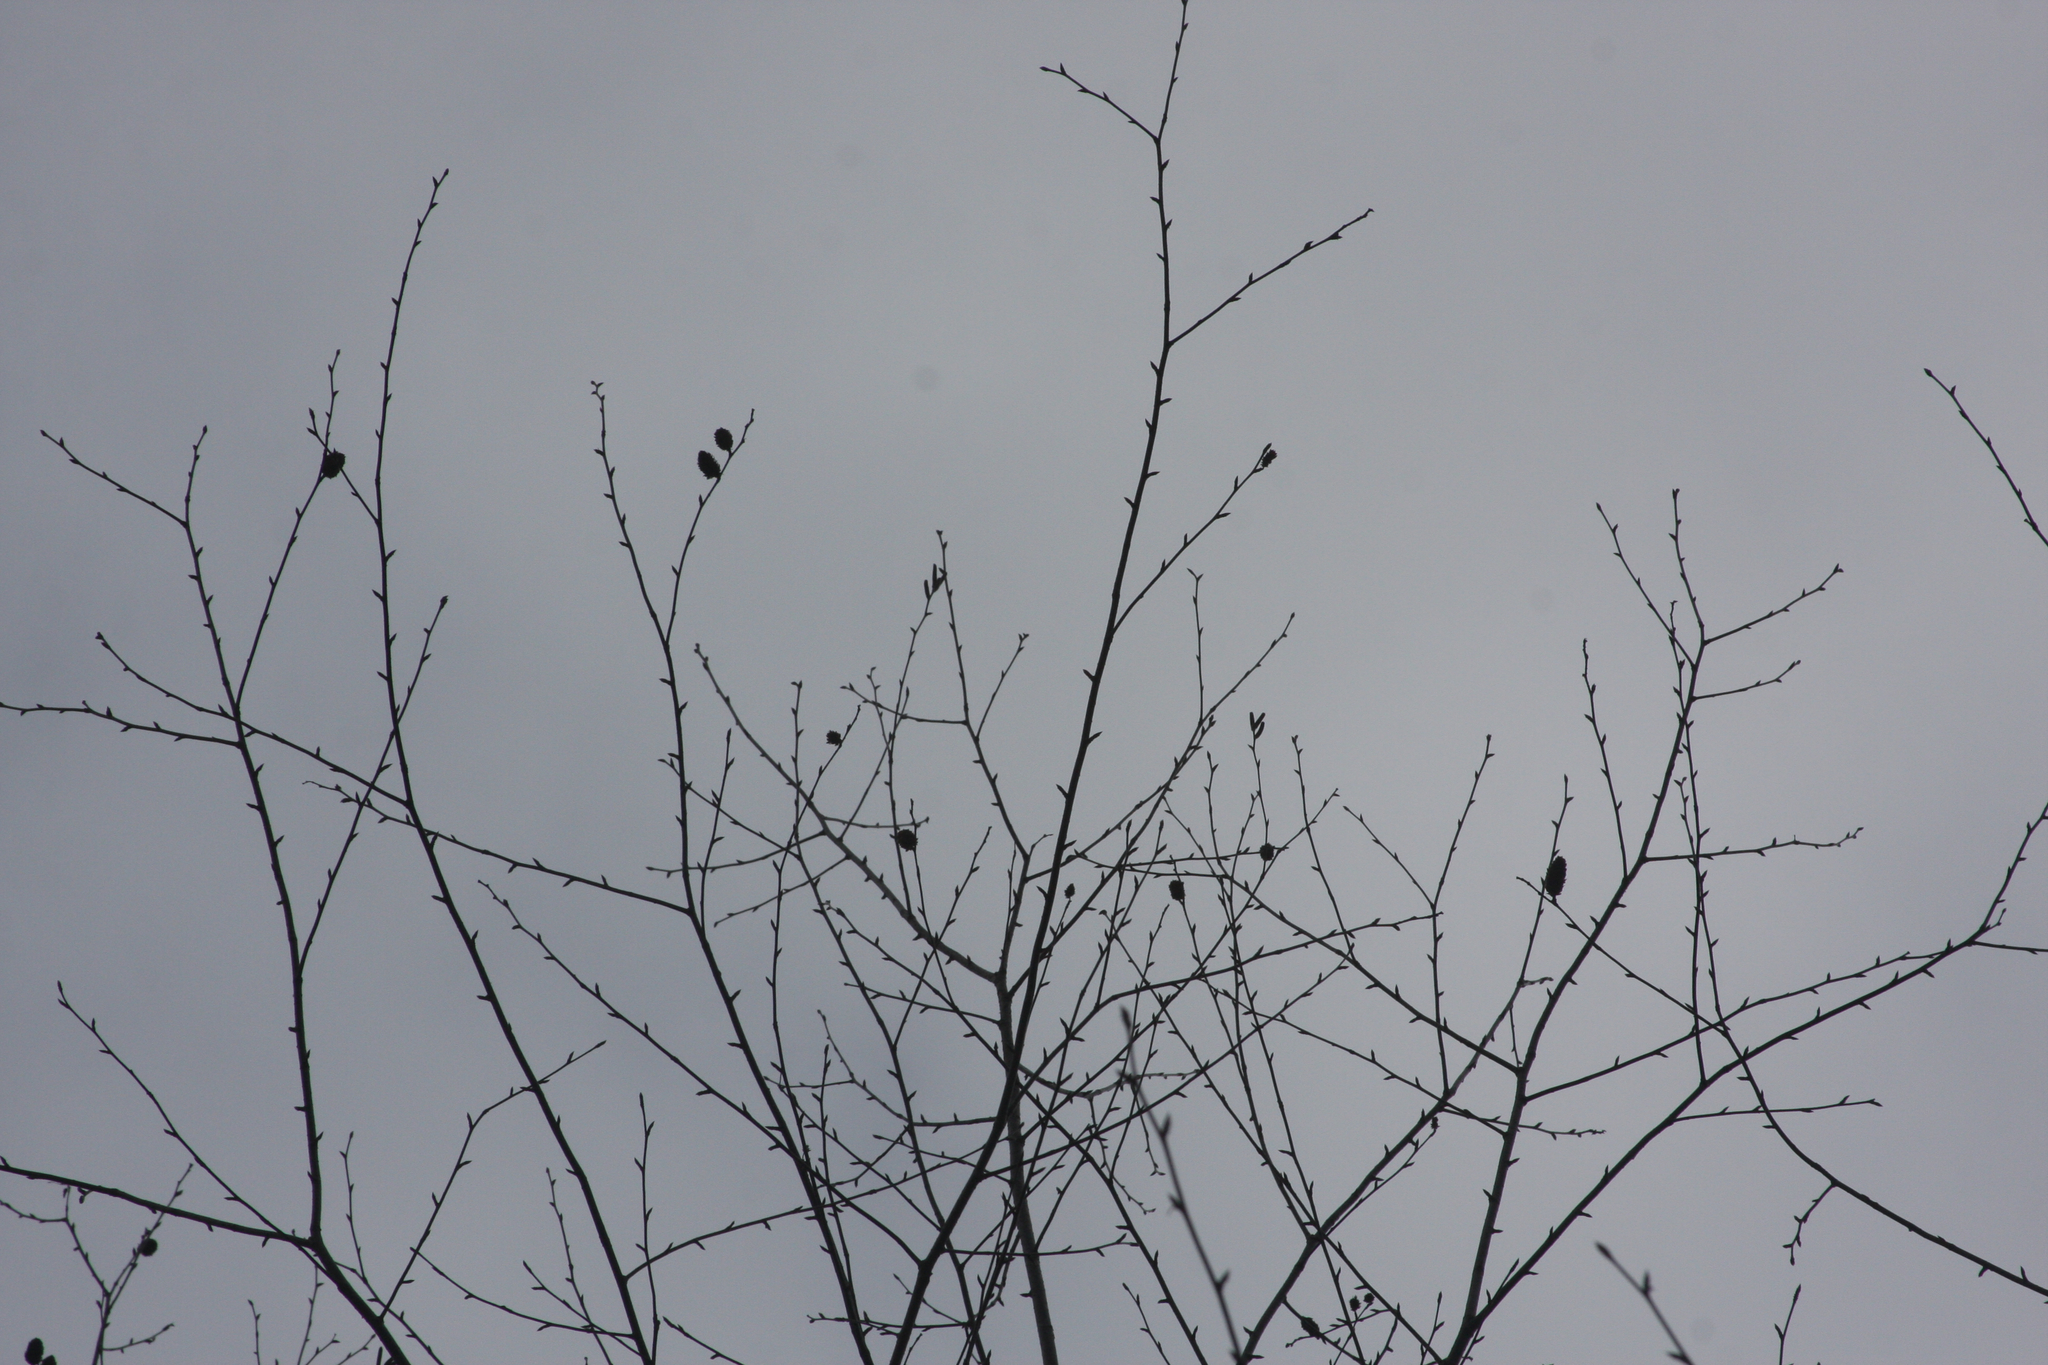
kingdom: Plantae
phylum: Tracheophyta
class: Magnoliopsida
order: Fagales
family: Betulaceae
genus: Betula
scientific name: Betula alleghaniensis
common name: Yellow birch
